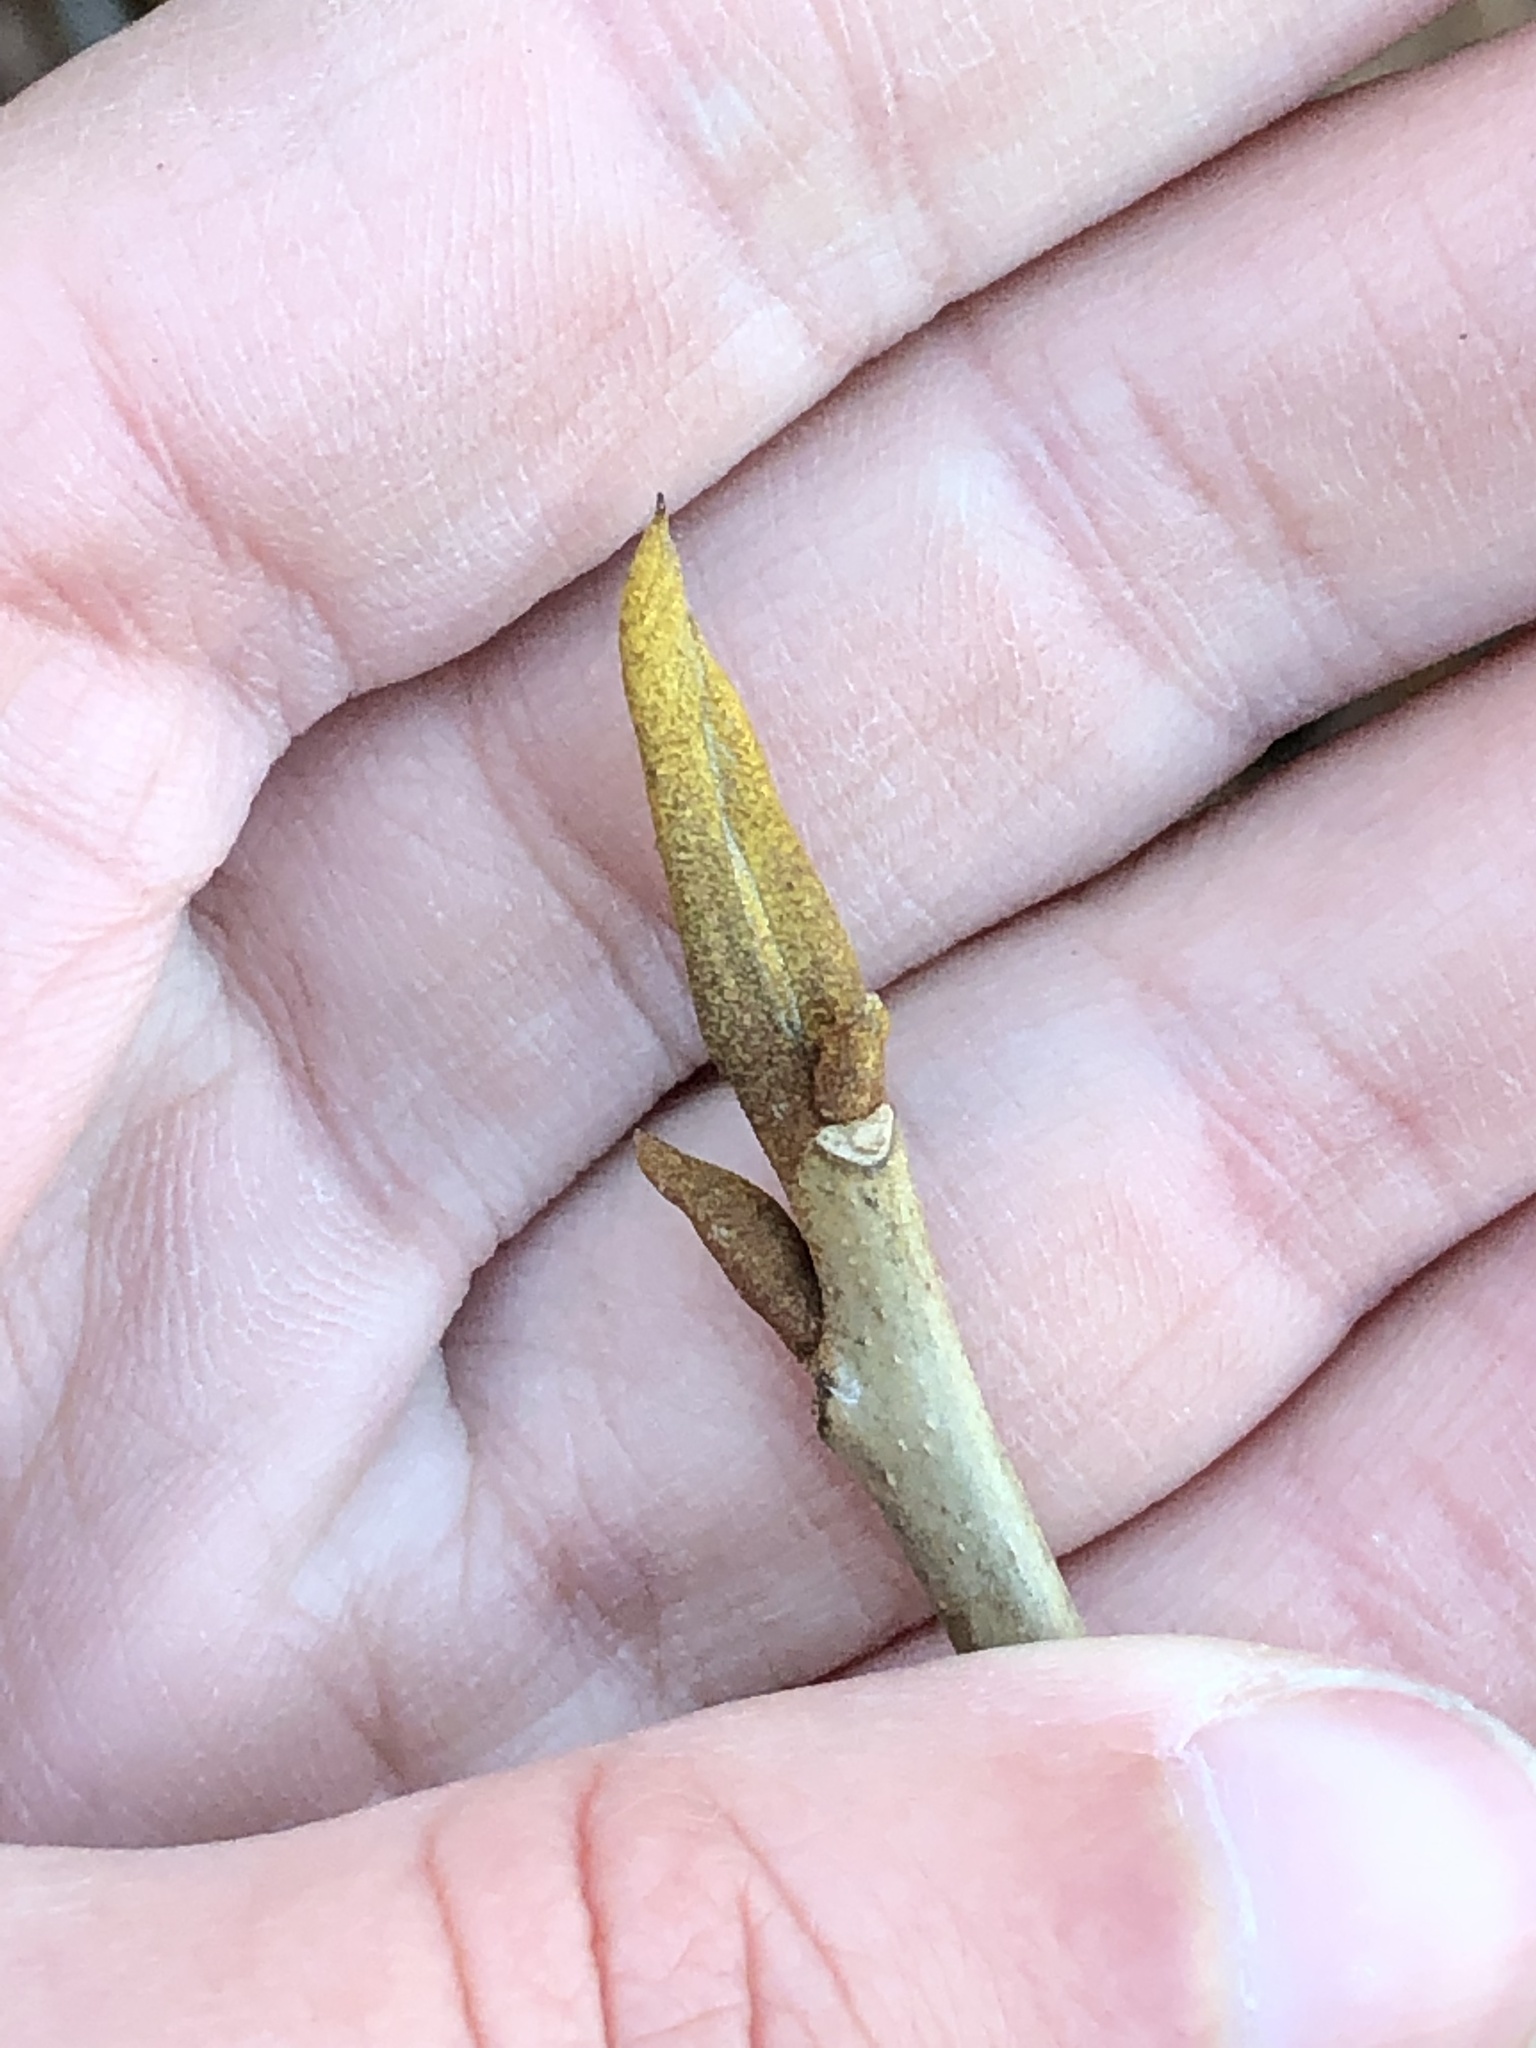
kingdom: Plantae
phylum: Tracheophyta
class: Magnoliopsida
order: Fagales
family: Juglandaceae
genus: Carya
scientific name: Carya cordiformis
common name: Bitternut hickory
